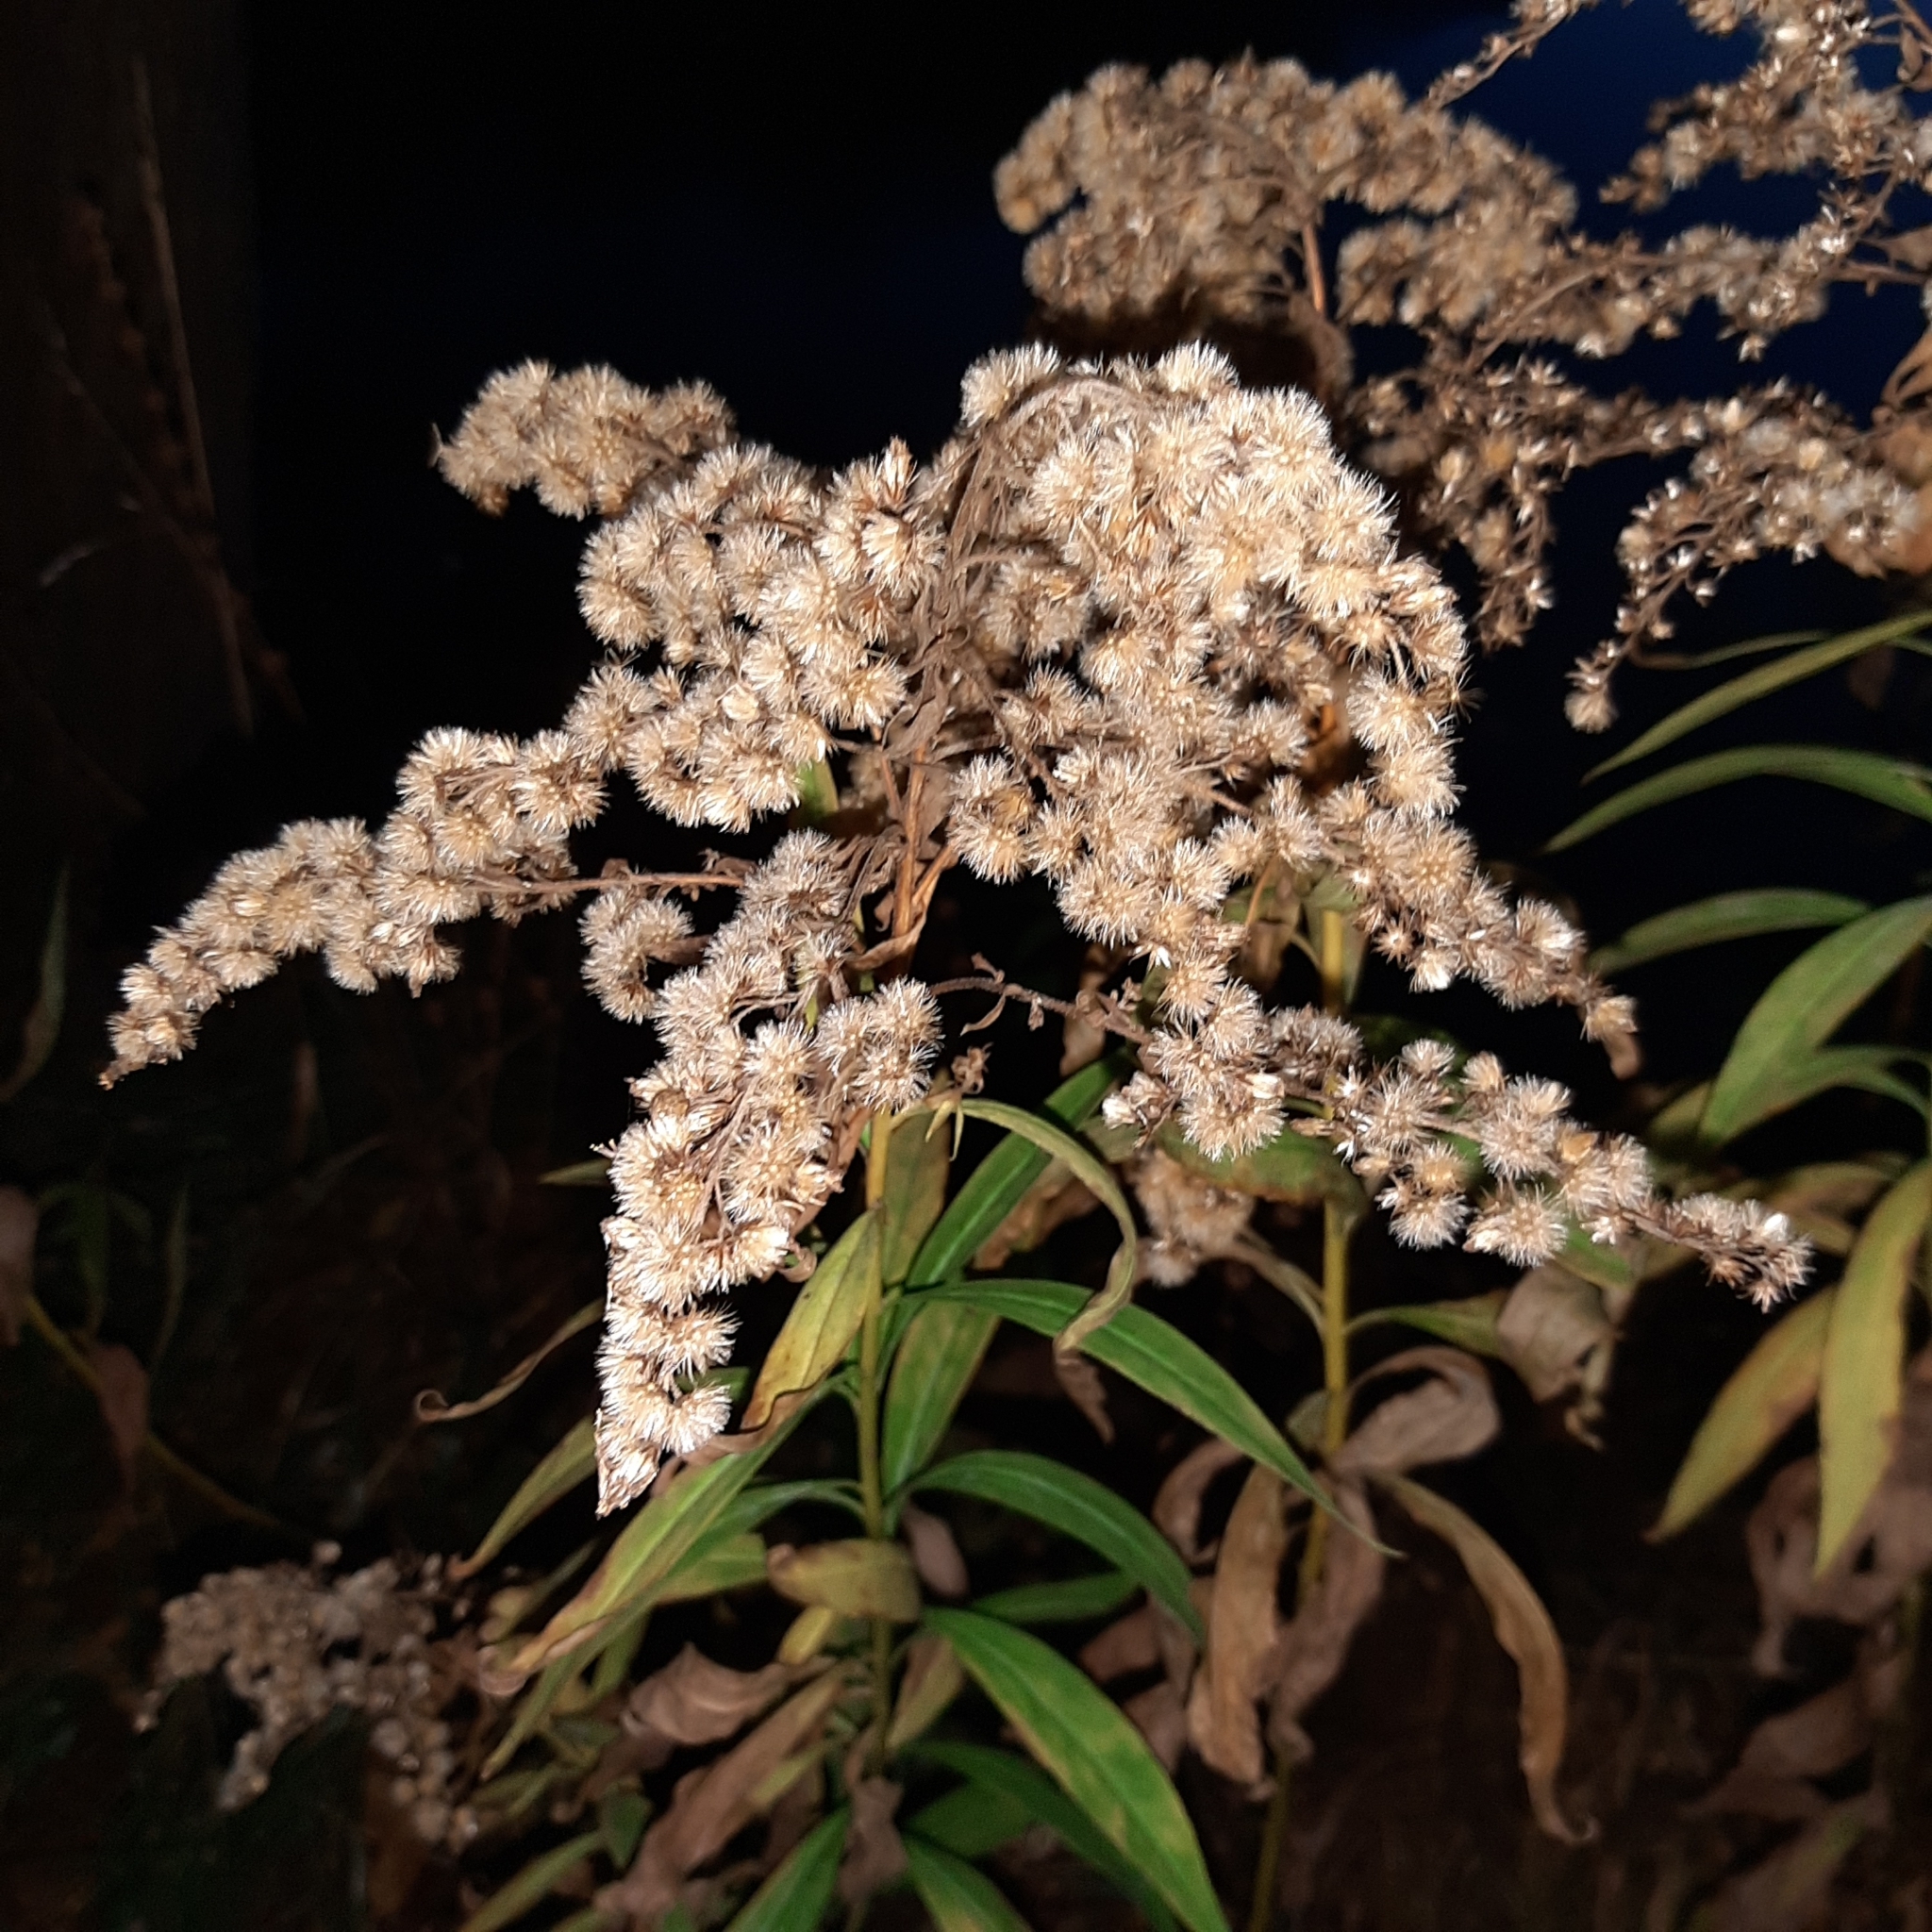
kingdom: Plantae
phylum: Tracheophyta
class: Magnoliopsida
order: Asterales
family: Asteraceae
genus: Solidago
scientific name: Solidago gigantea
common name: Giant goldenrod
